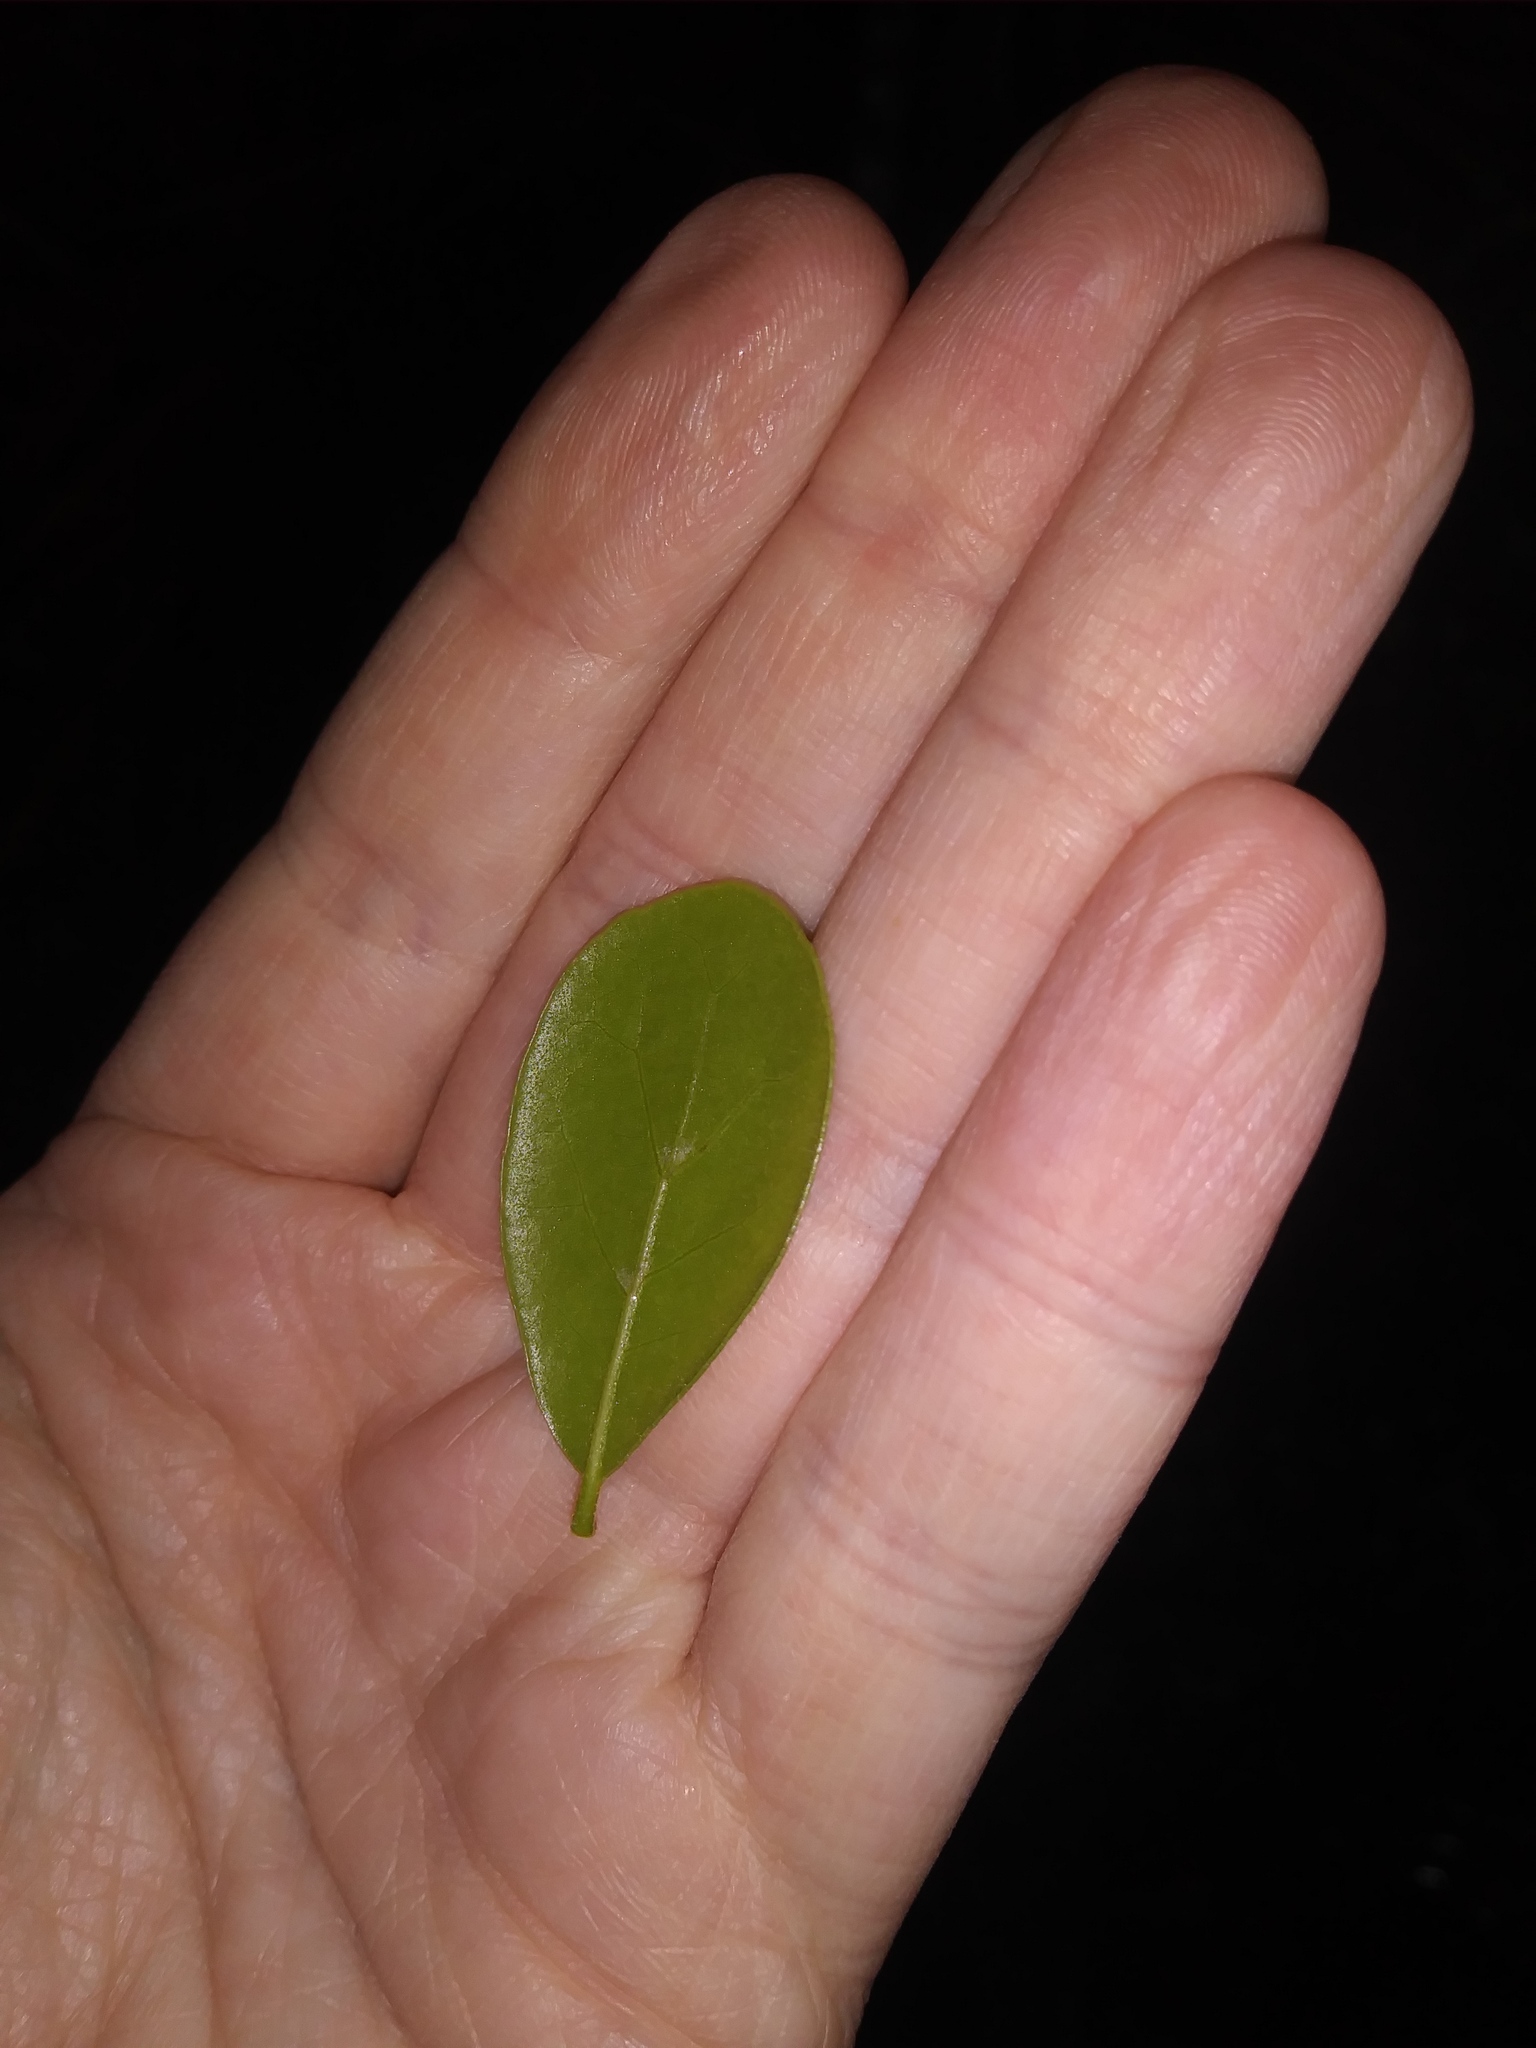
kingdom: Plantae
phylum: Tracheophyta
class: Magnoliopsida
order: Fagales
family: Fagaceae
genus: Quercus
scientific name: Quercus myrtifolia
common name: Myrtle oak
